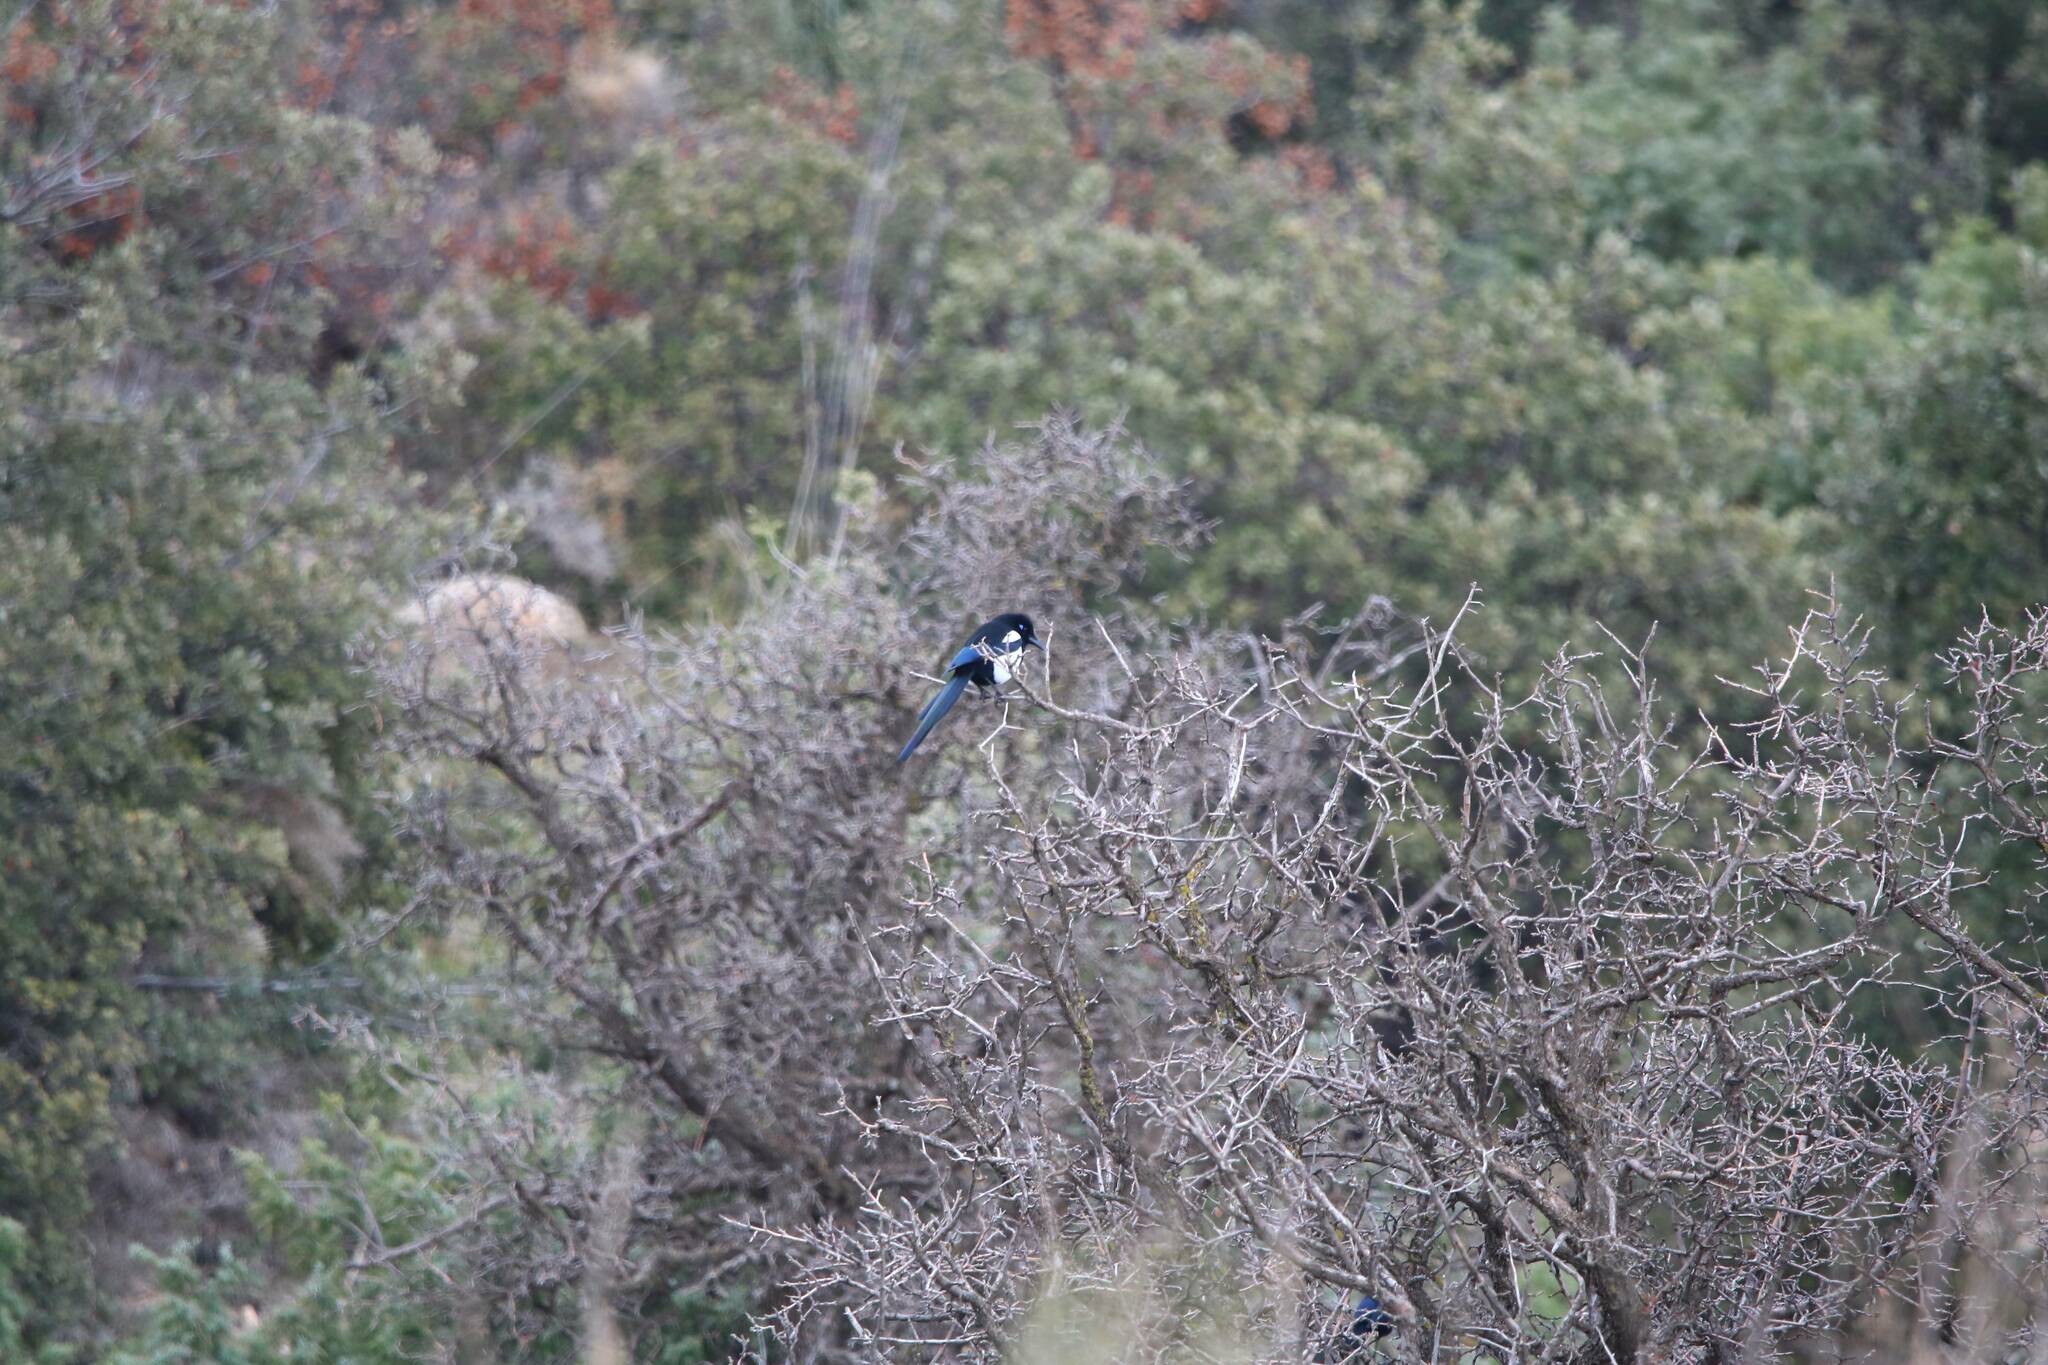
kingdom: Animalia
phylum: Chordata
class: Aves
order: Passeriformes
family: Corvidae
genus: Pica
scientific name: Pica mauritanica
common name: Maghreb magpie
